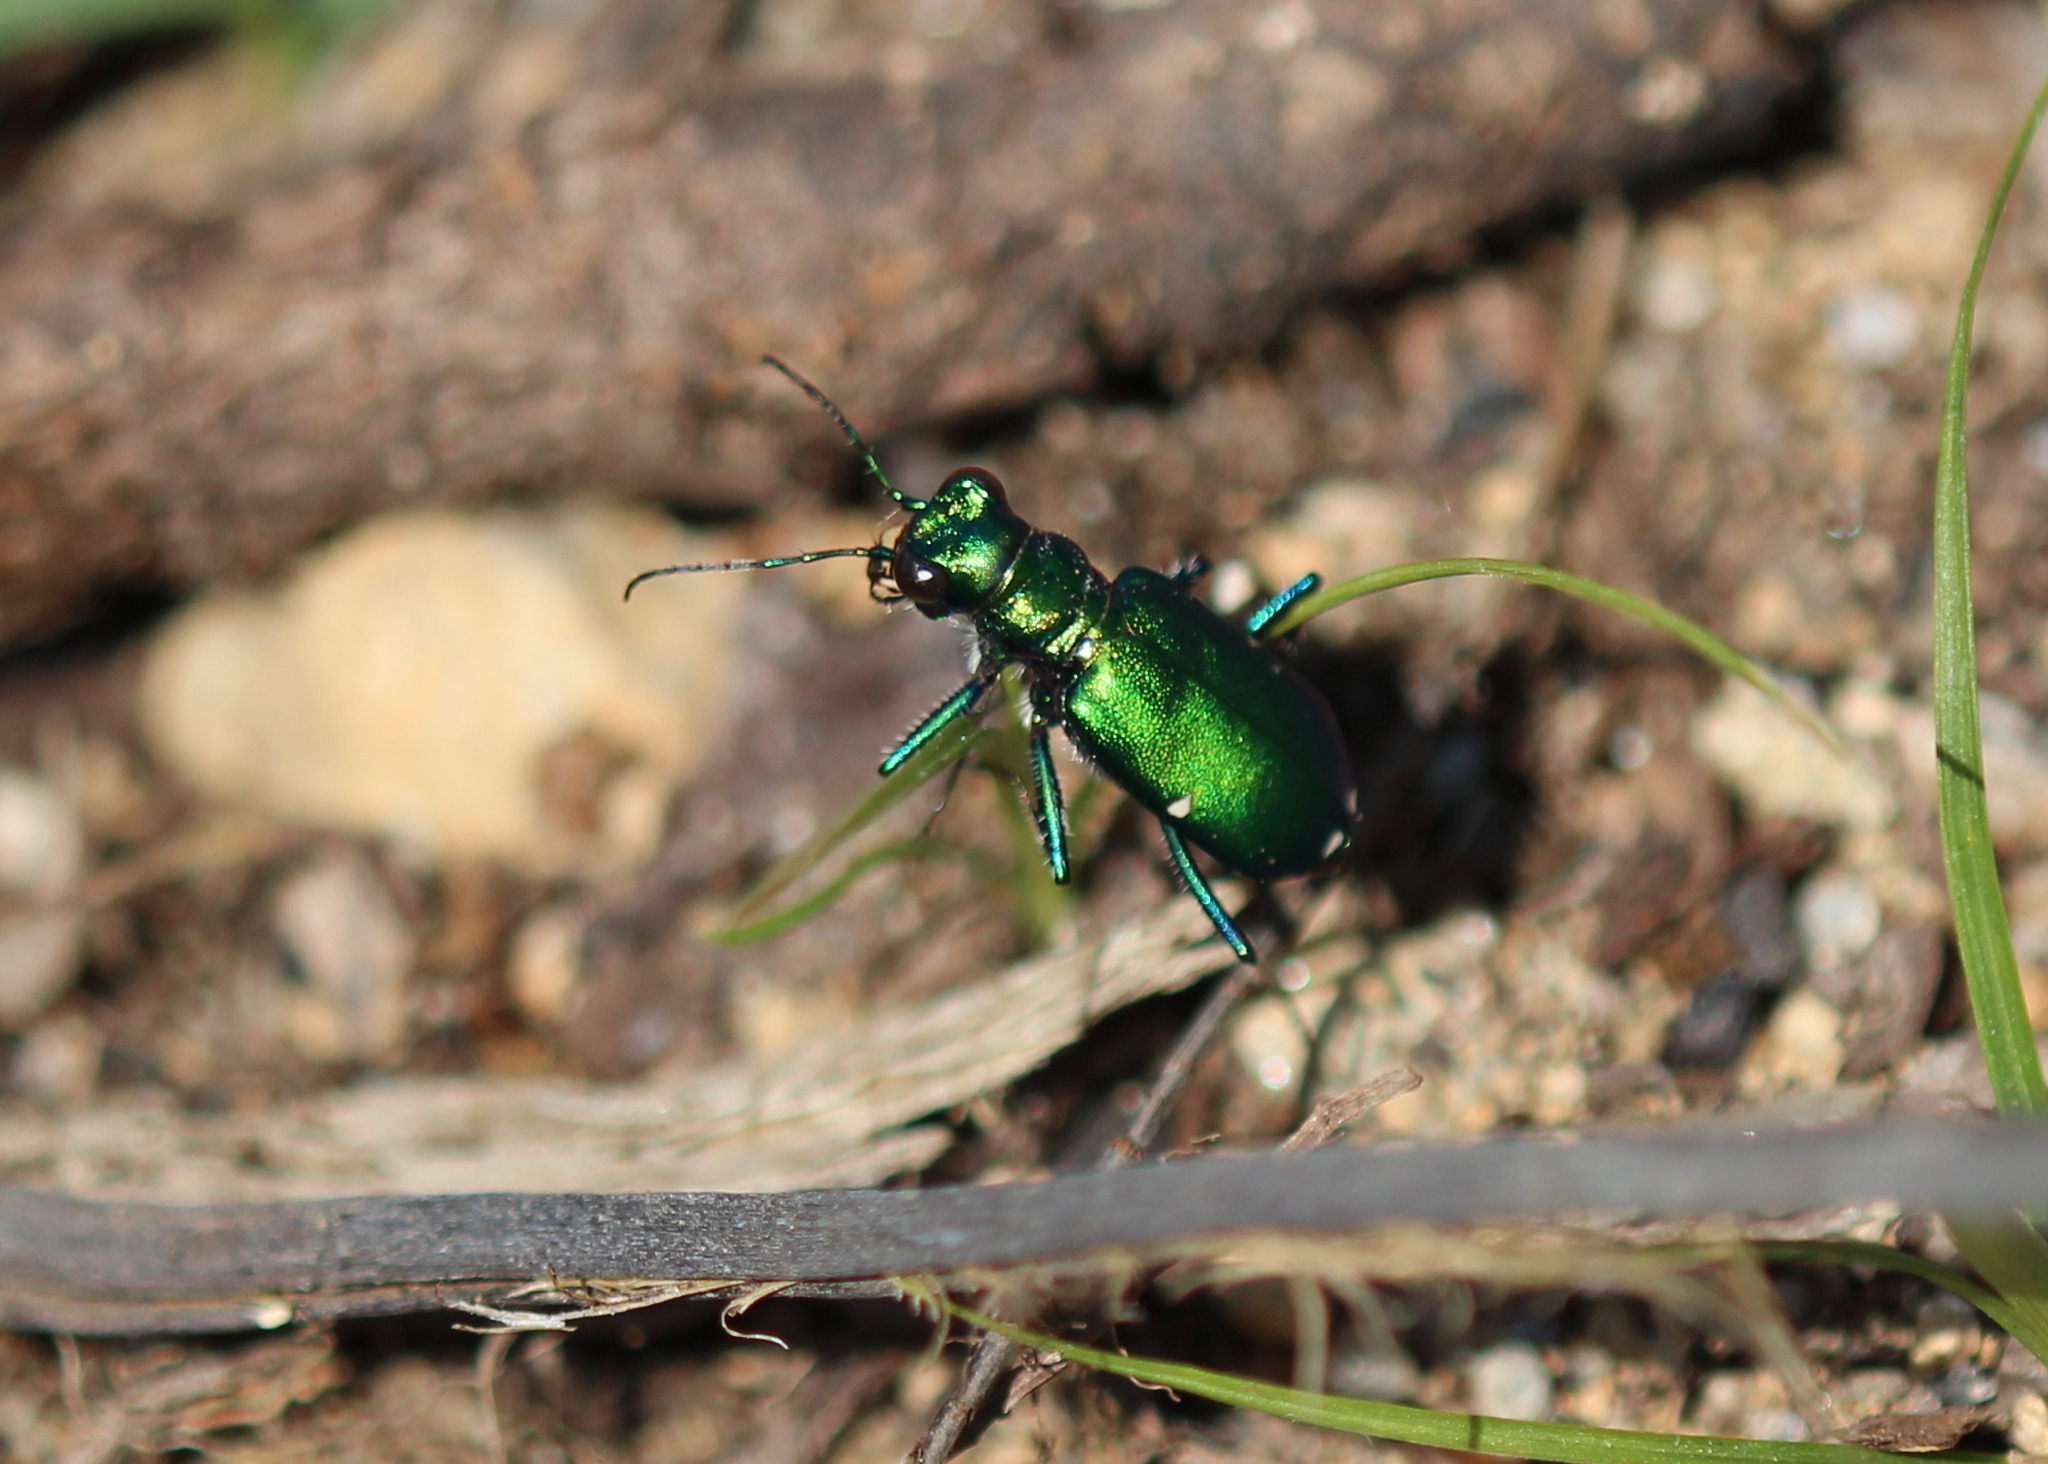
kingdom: Animalia
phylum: Arthropoda
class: Insecta
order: Coleoptera
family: Carabidae
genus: Cicindela
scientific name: Cicindela sexguttata
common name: Six-spotted tiger beetle
